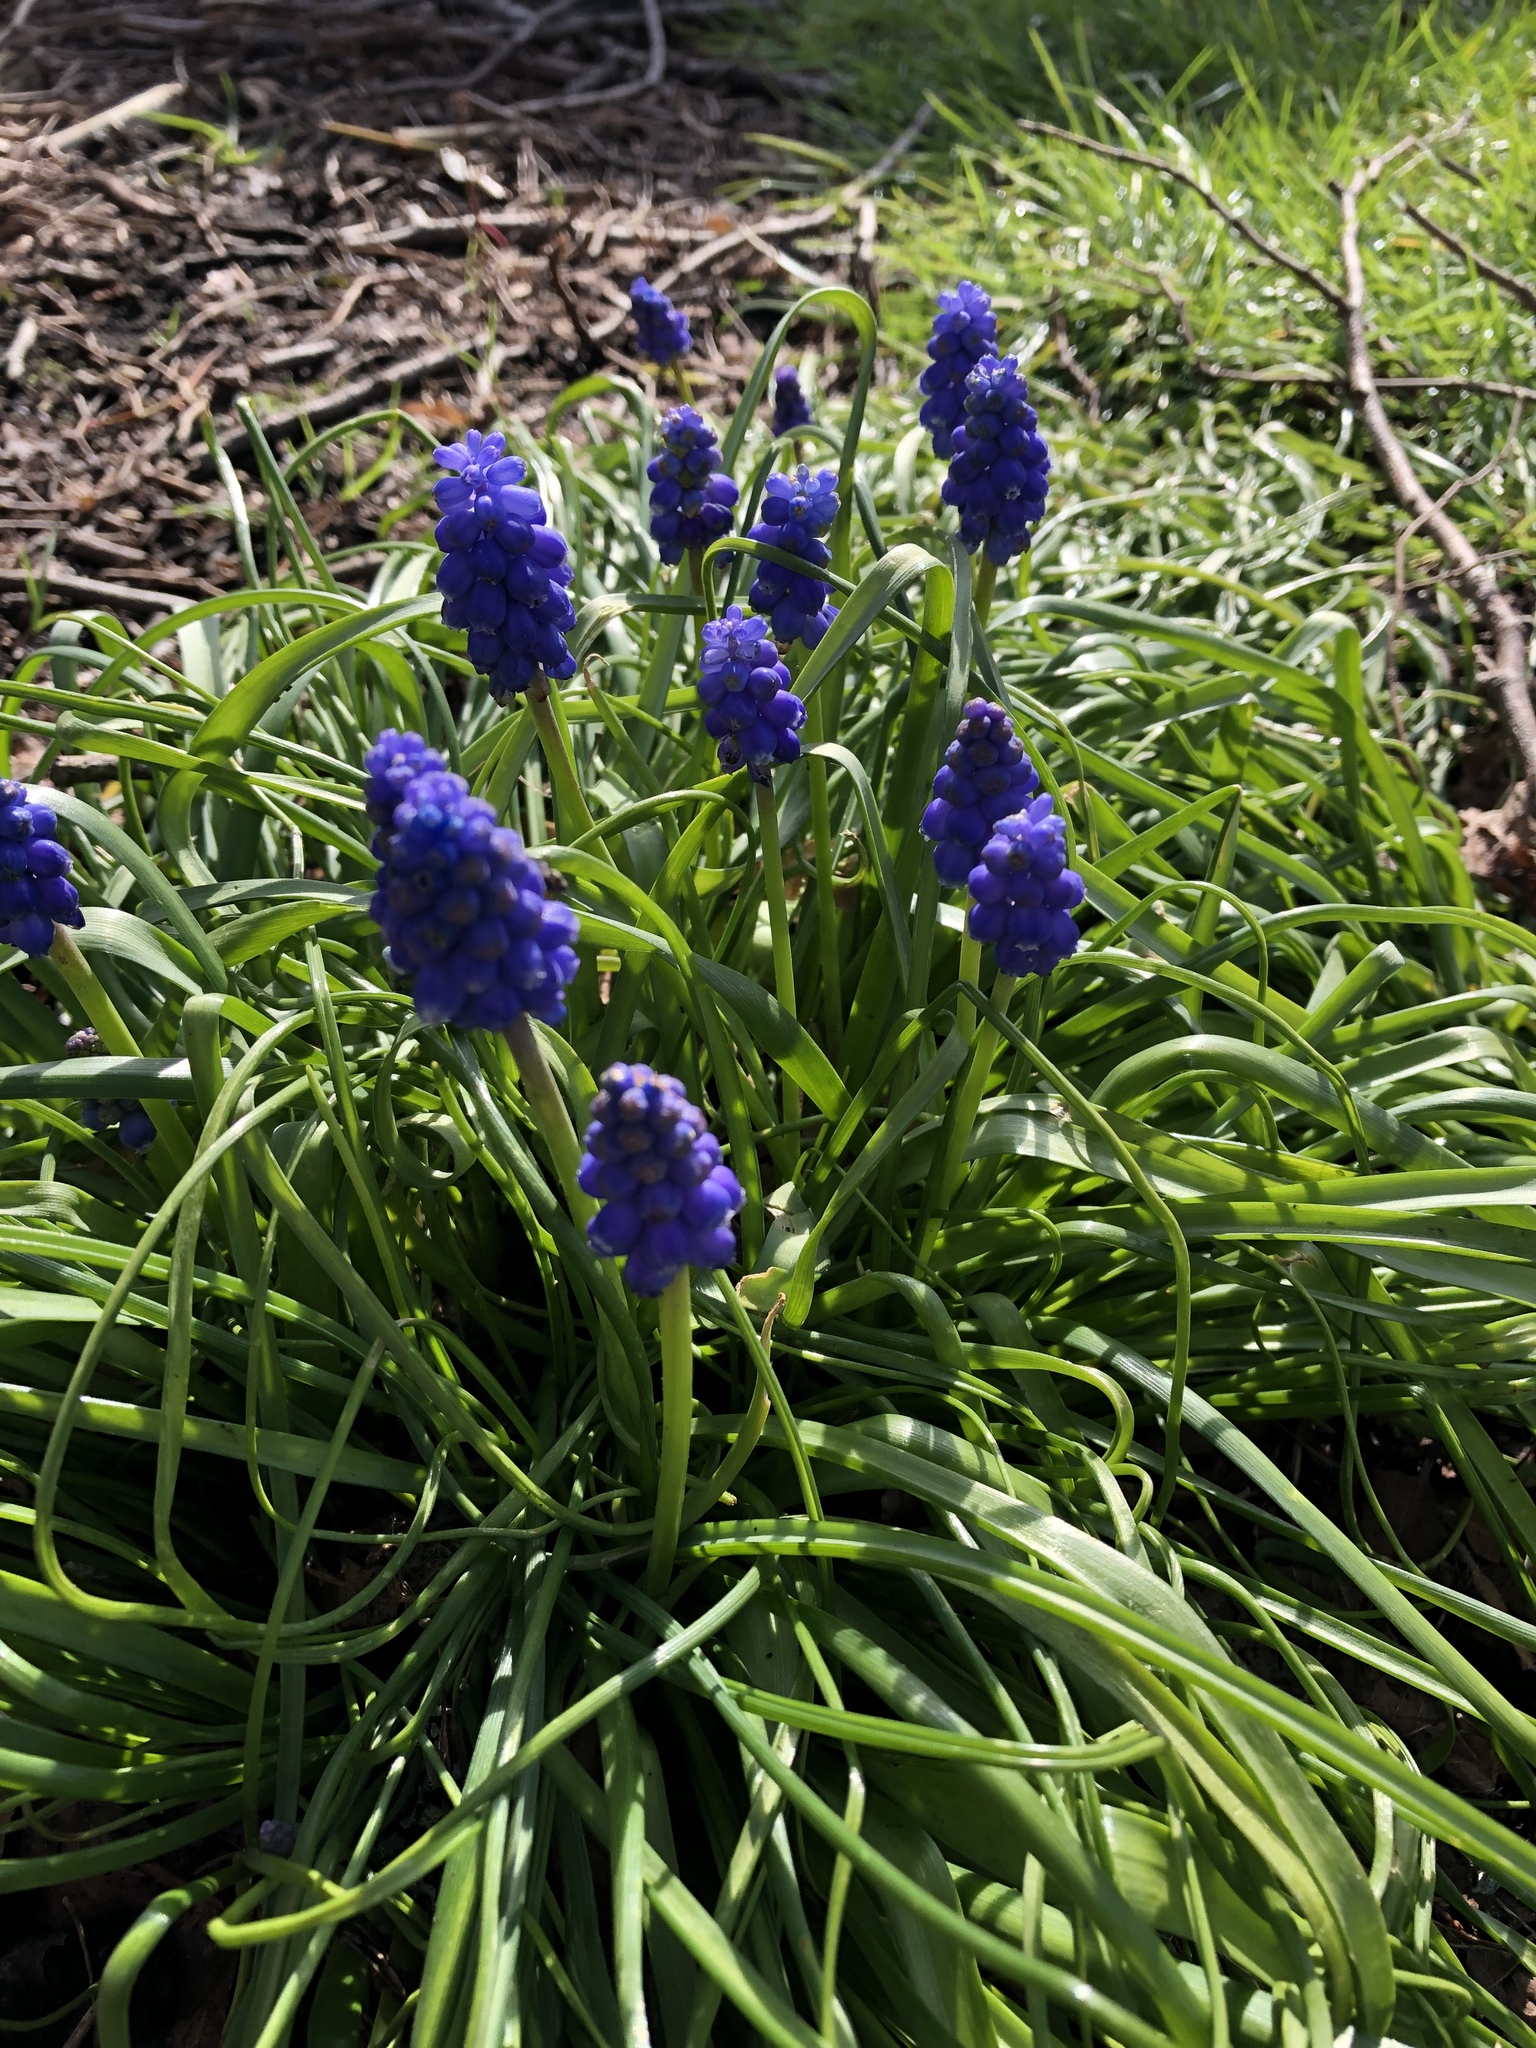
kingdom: Plantae
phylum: Tracheophyta
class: Liliopsida
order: Asparagales
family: Asparagaceae
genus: Muscari
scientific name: Muscari armeniacum
